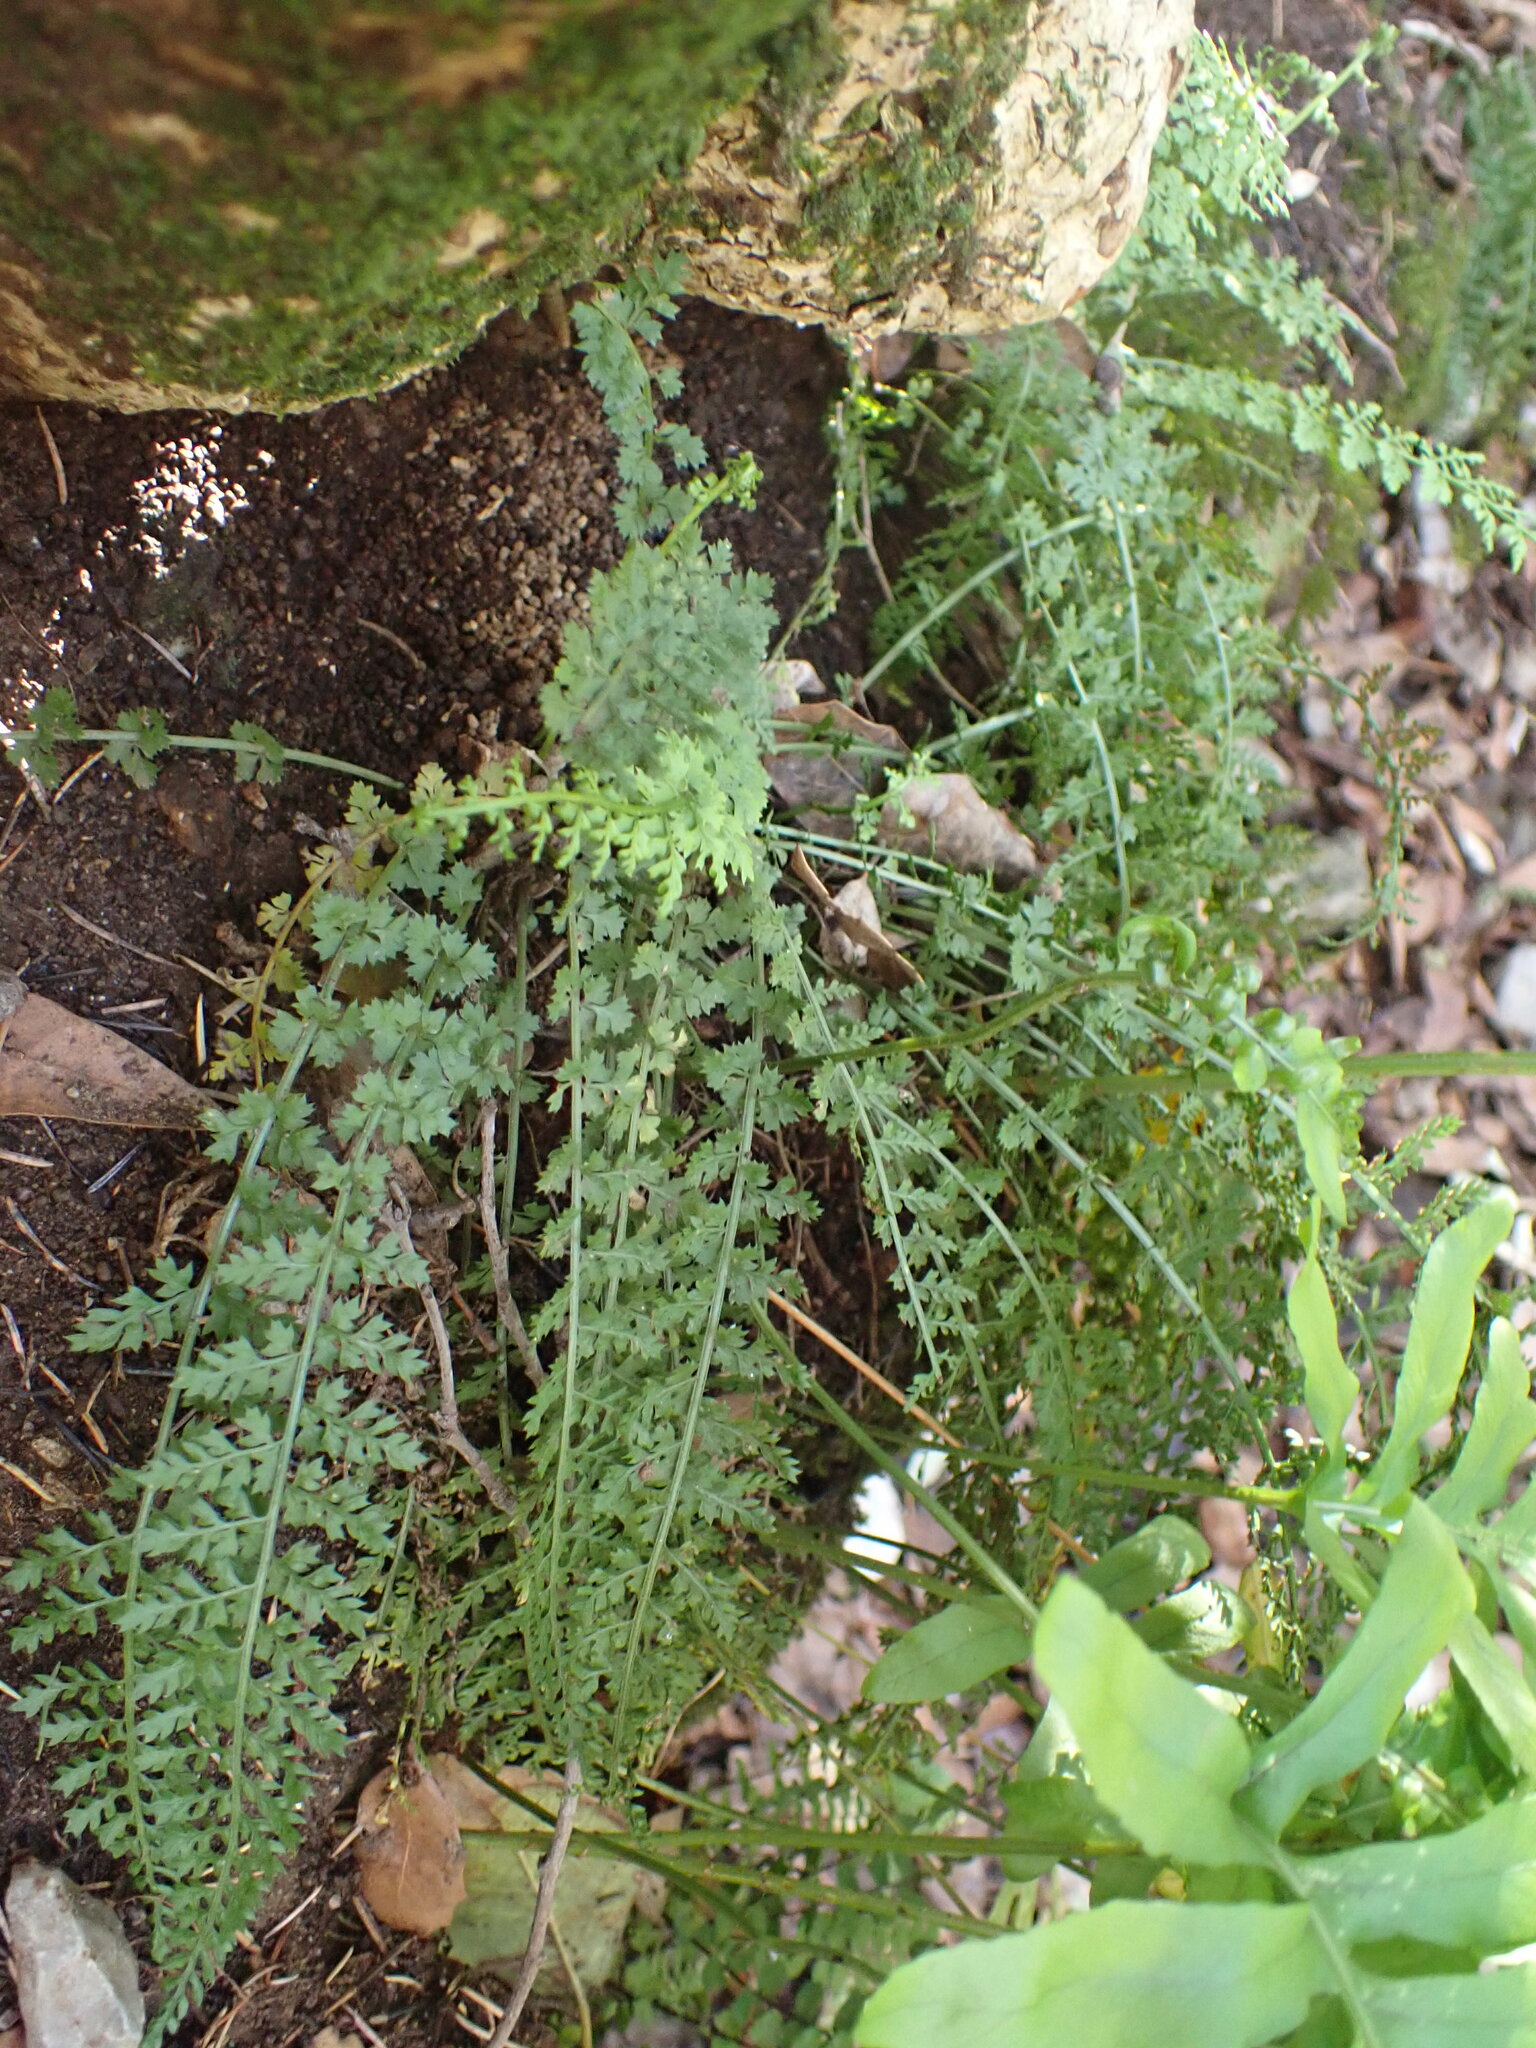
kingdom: Plantae
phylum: Tracheophyta
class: Polypodiopsida
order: Polypodiales
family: Aspleniaceae
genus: Asplenium
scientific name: Asplenium fontanum
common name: Fountain spleenwort
